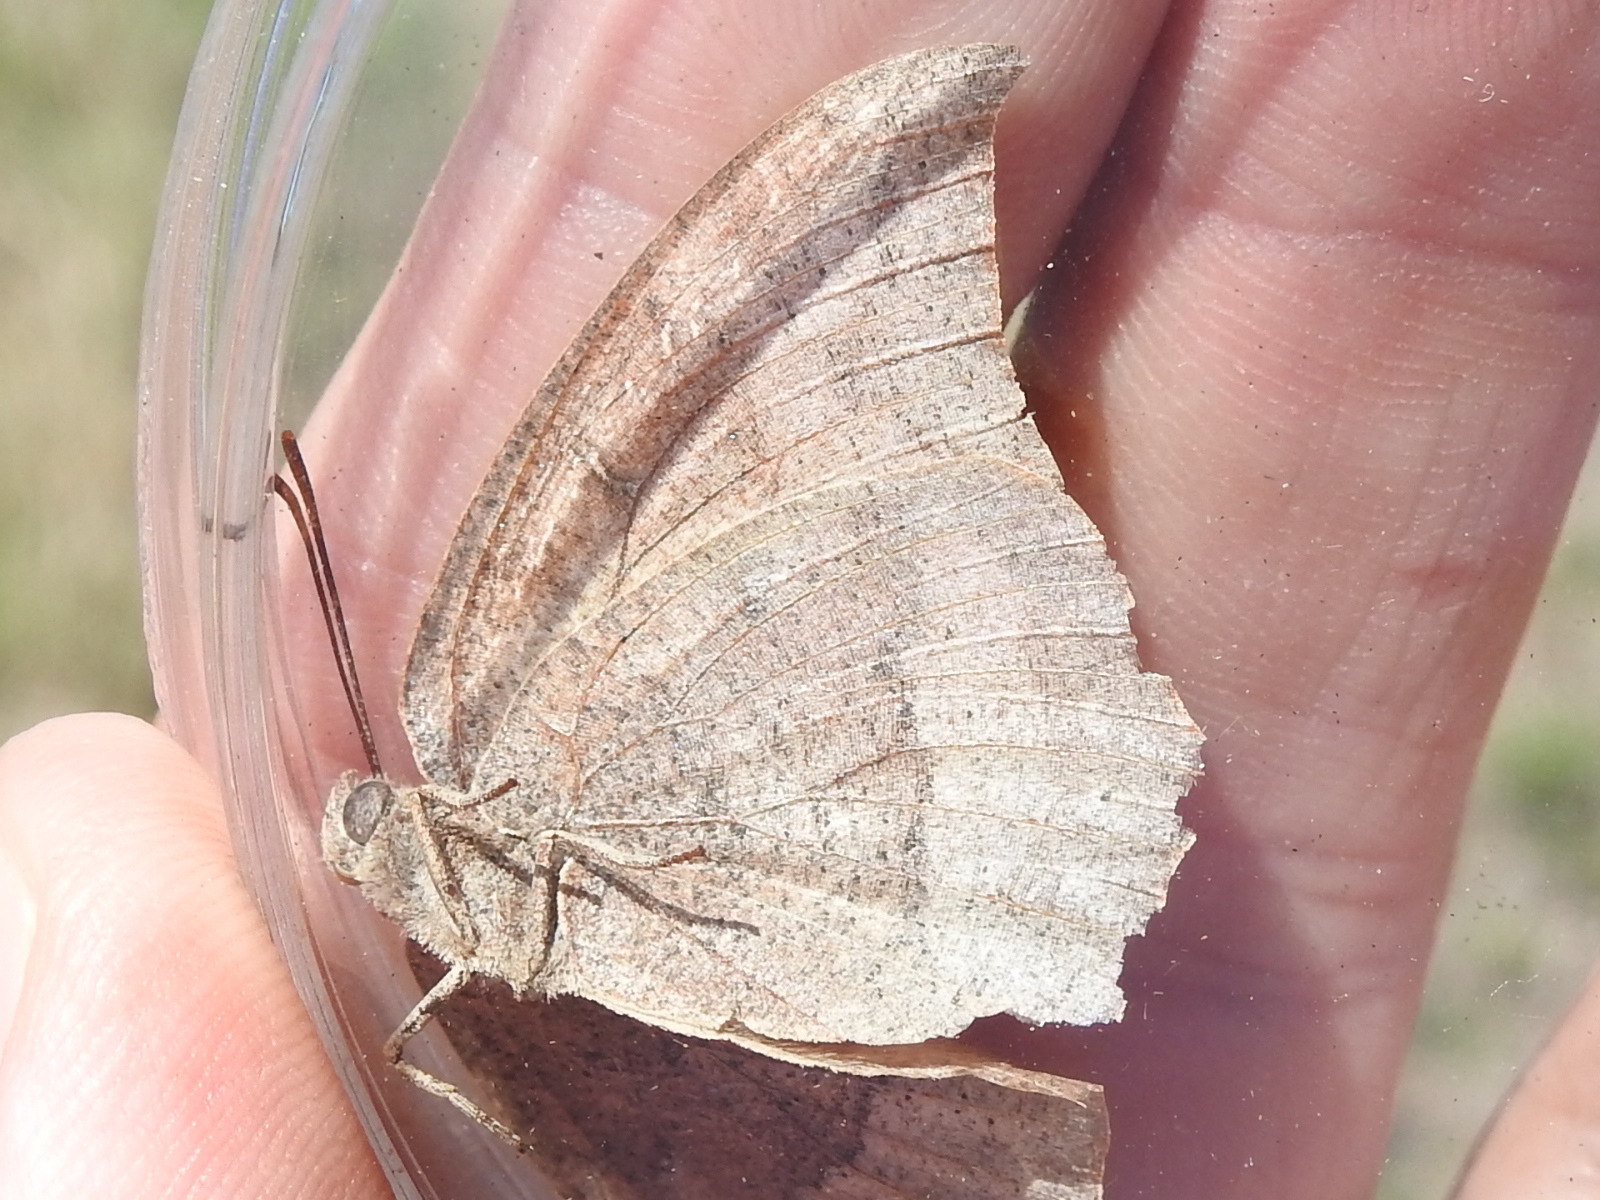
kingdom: Animalia
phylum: Arthropoda
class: Insecta
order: Lepidoptera
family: Nymphalidae
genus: Anaea
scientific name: Anaea andria
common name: Goatweed leafwing
